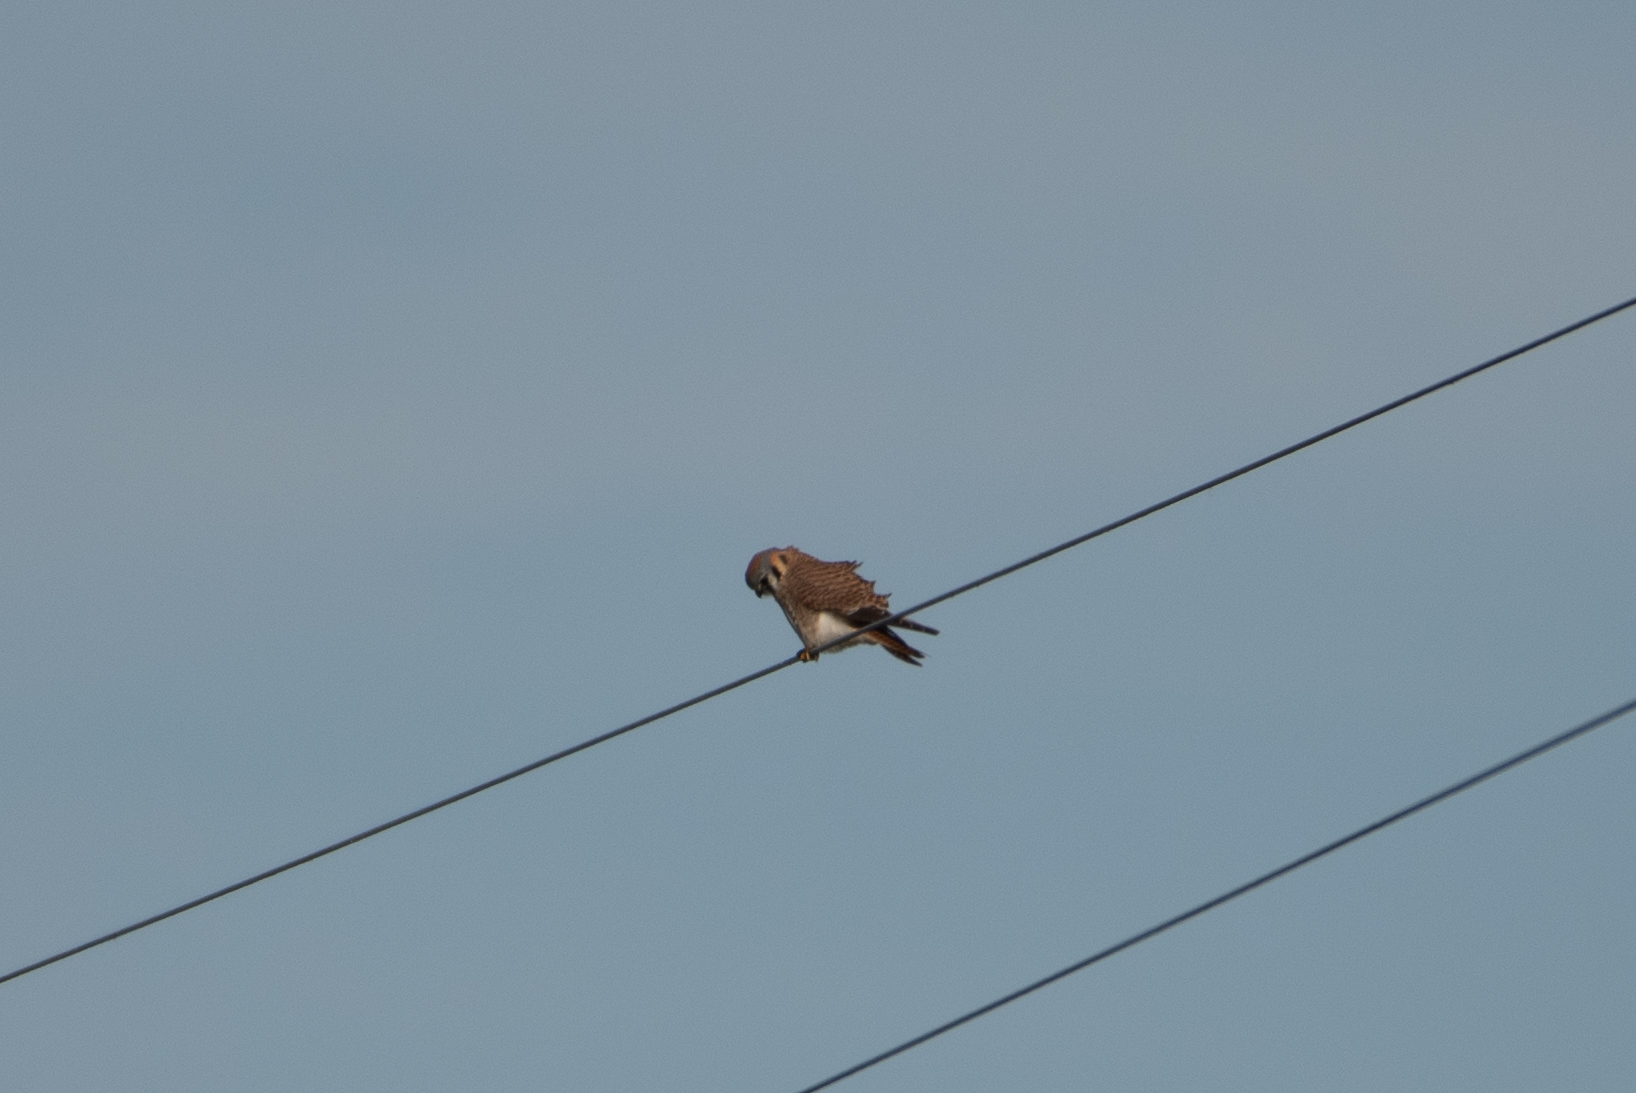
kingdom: Animalia
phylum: Chordata
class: Aves
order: Falconiformes
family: Falconidae
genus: Falco
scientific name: Falco sparverius
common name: American kestrel
